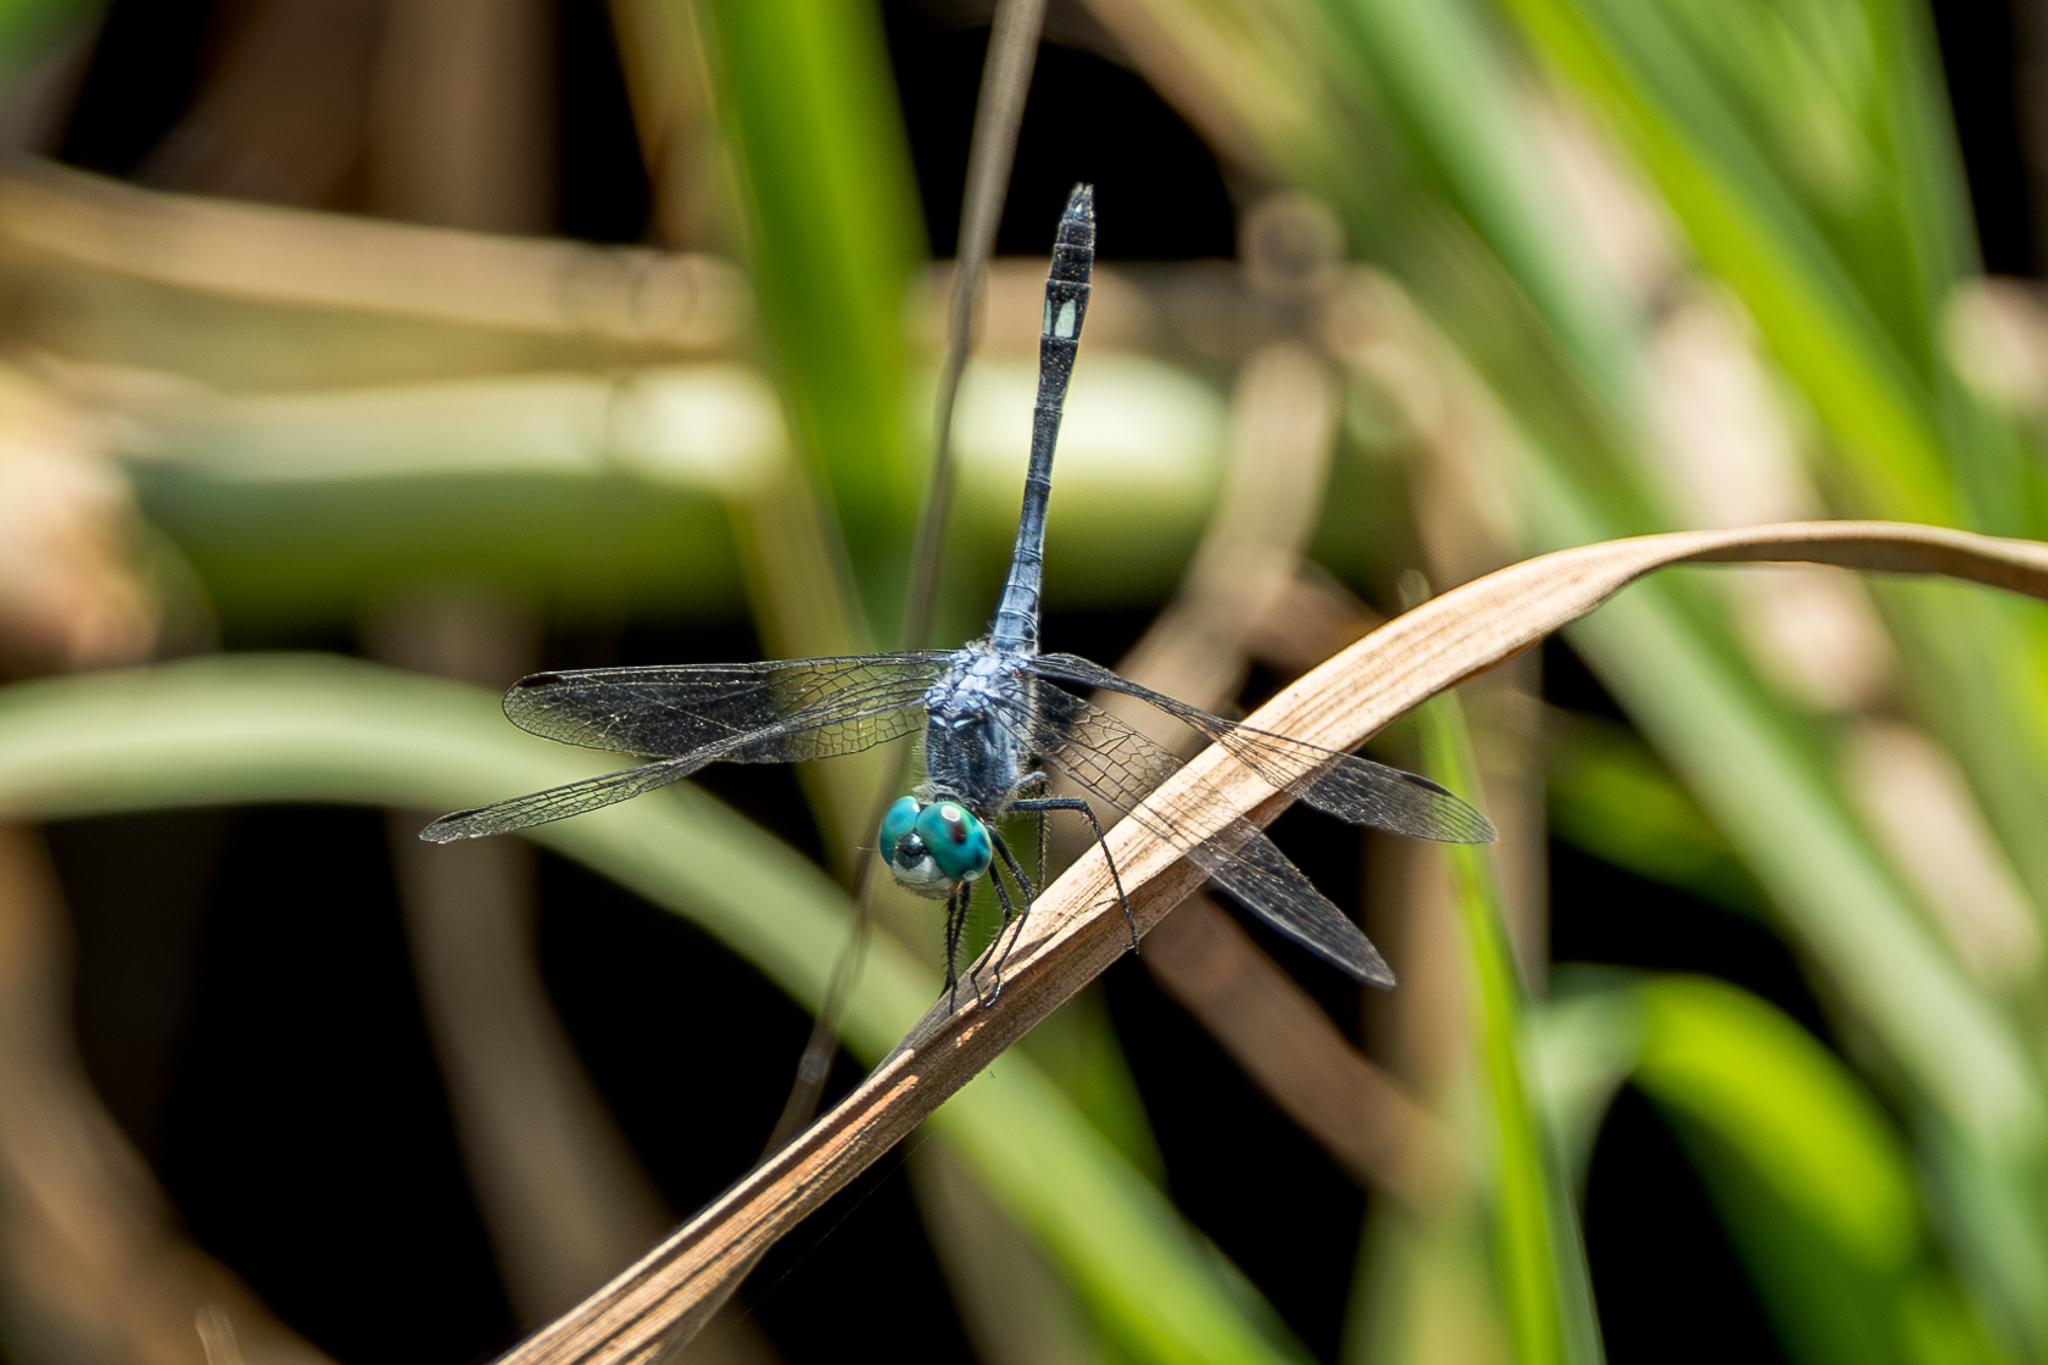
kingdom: Animalia
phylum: Arthropoda
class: Insecta
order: Odonata
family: Libellulidae
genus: Micrathyria
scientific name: Micrathyria aequalis
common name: Spot-tailed dasher
